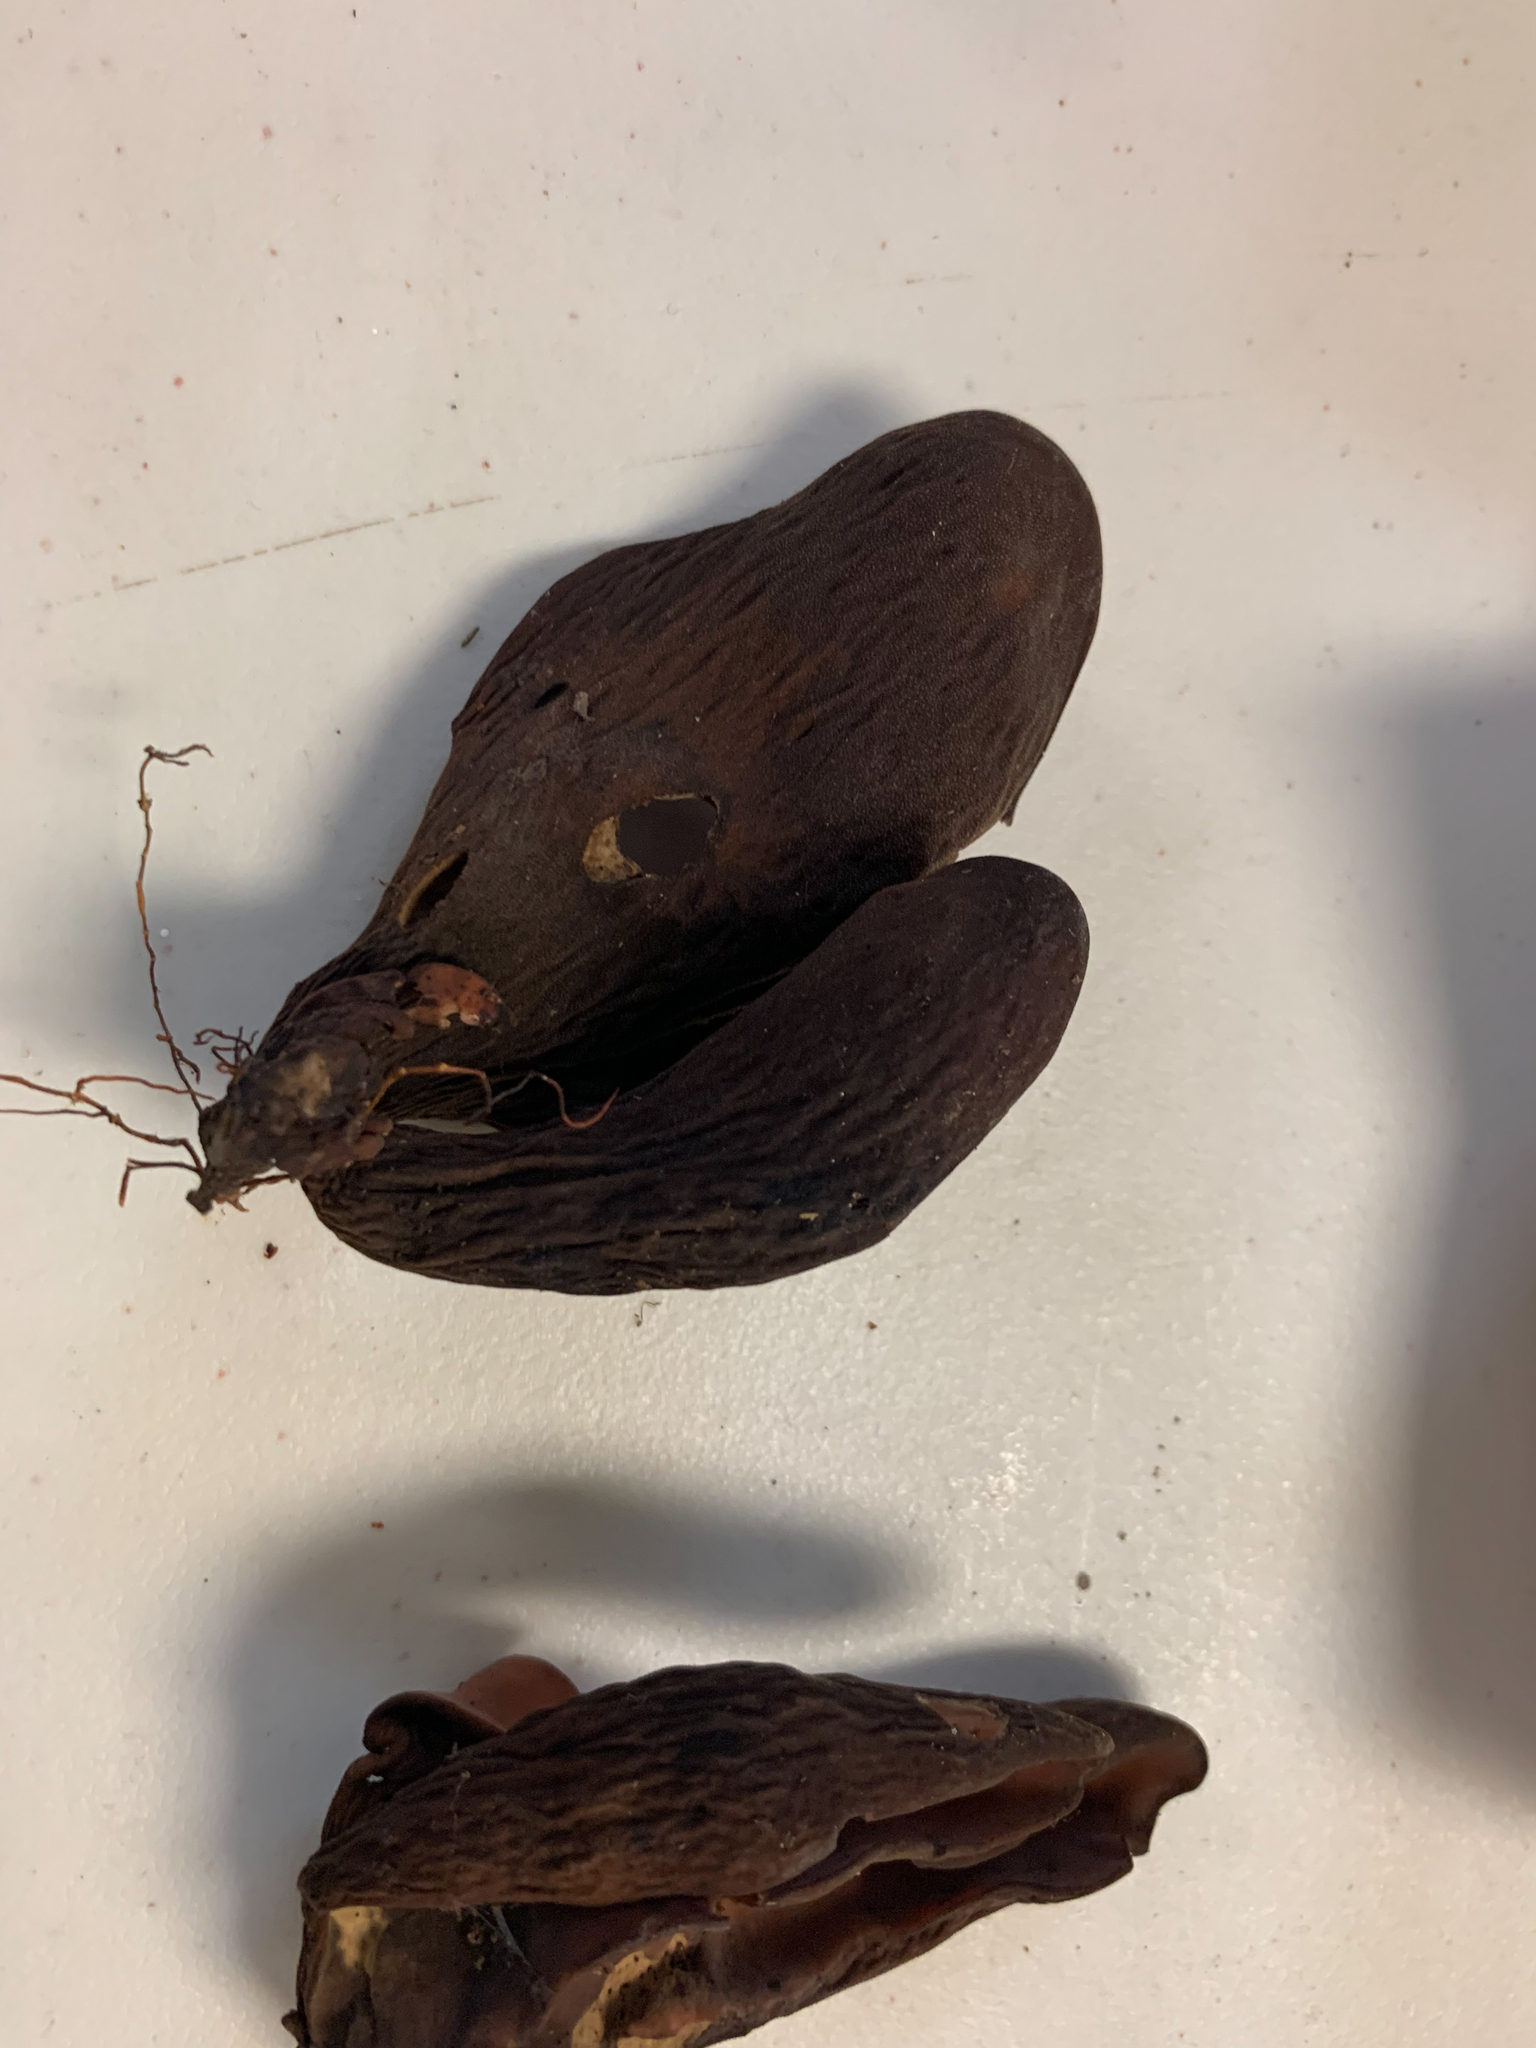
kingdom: Fungi
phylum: Ascomycota
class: Pezizomycetes
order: Pezizales
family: Wynneaceae
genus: Wynnea
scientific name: Wynnea americana
